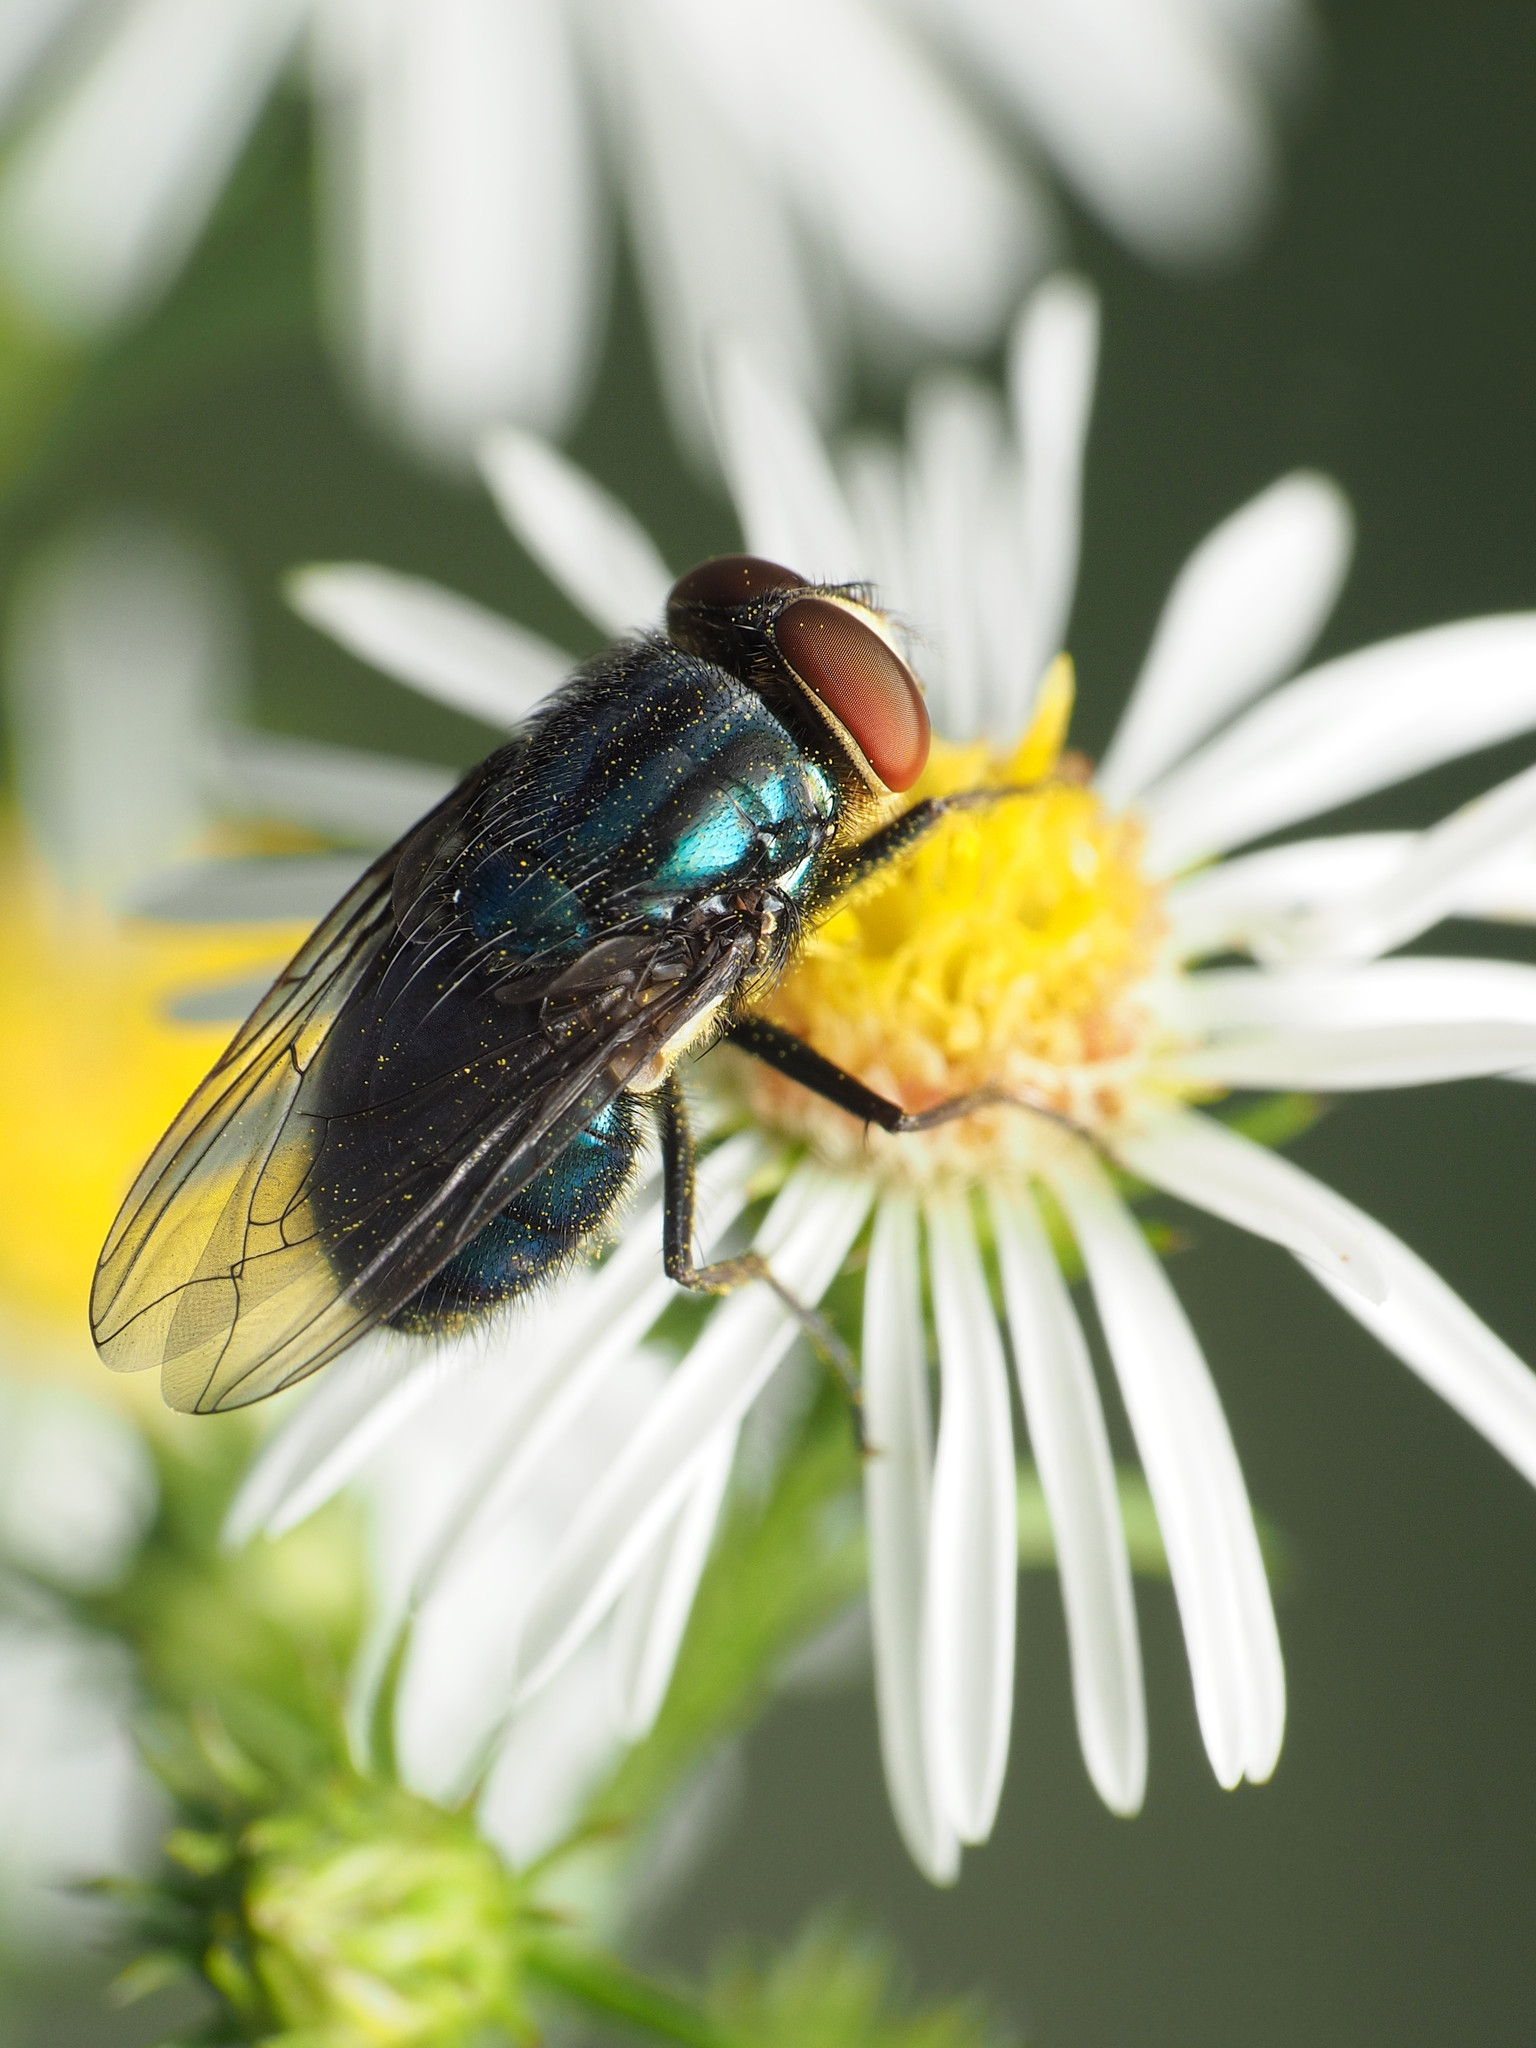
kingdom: Animalia
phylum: Arthropoda
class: Insecta
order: Diptera
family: Calliphoridae
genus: Cochliomyia
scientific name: Cochliomyia macellaria
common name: Secondary screwworm
